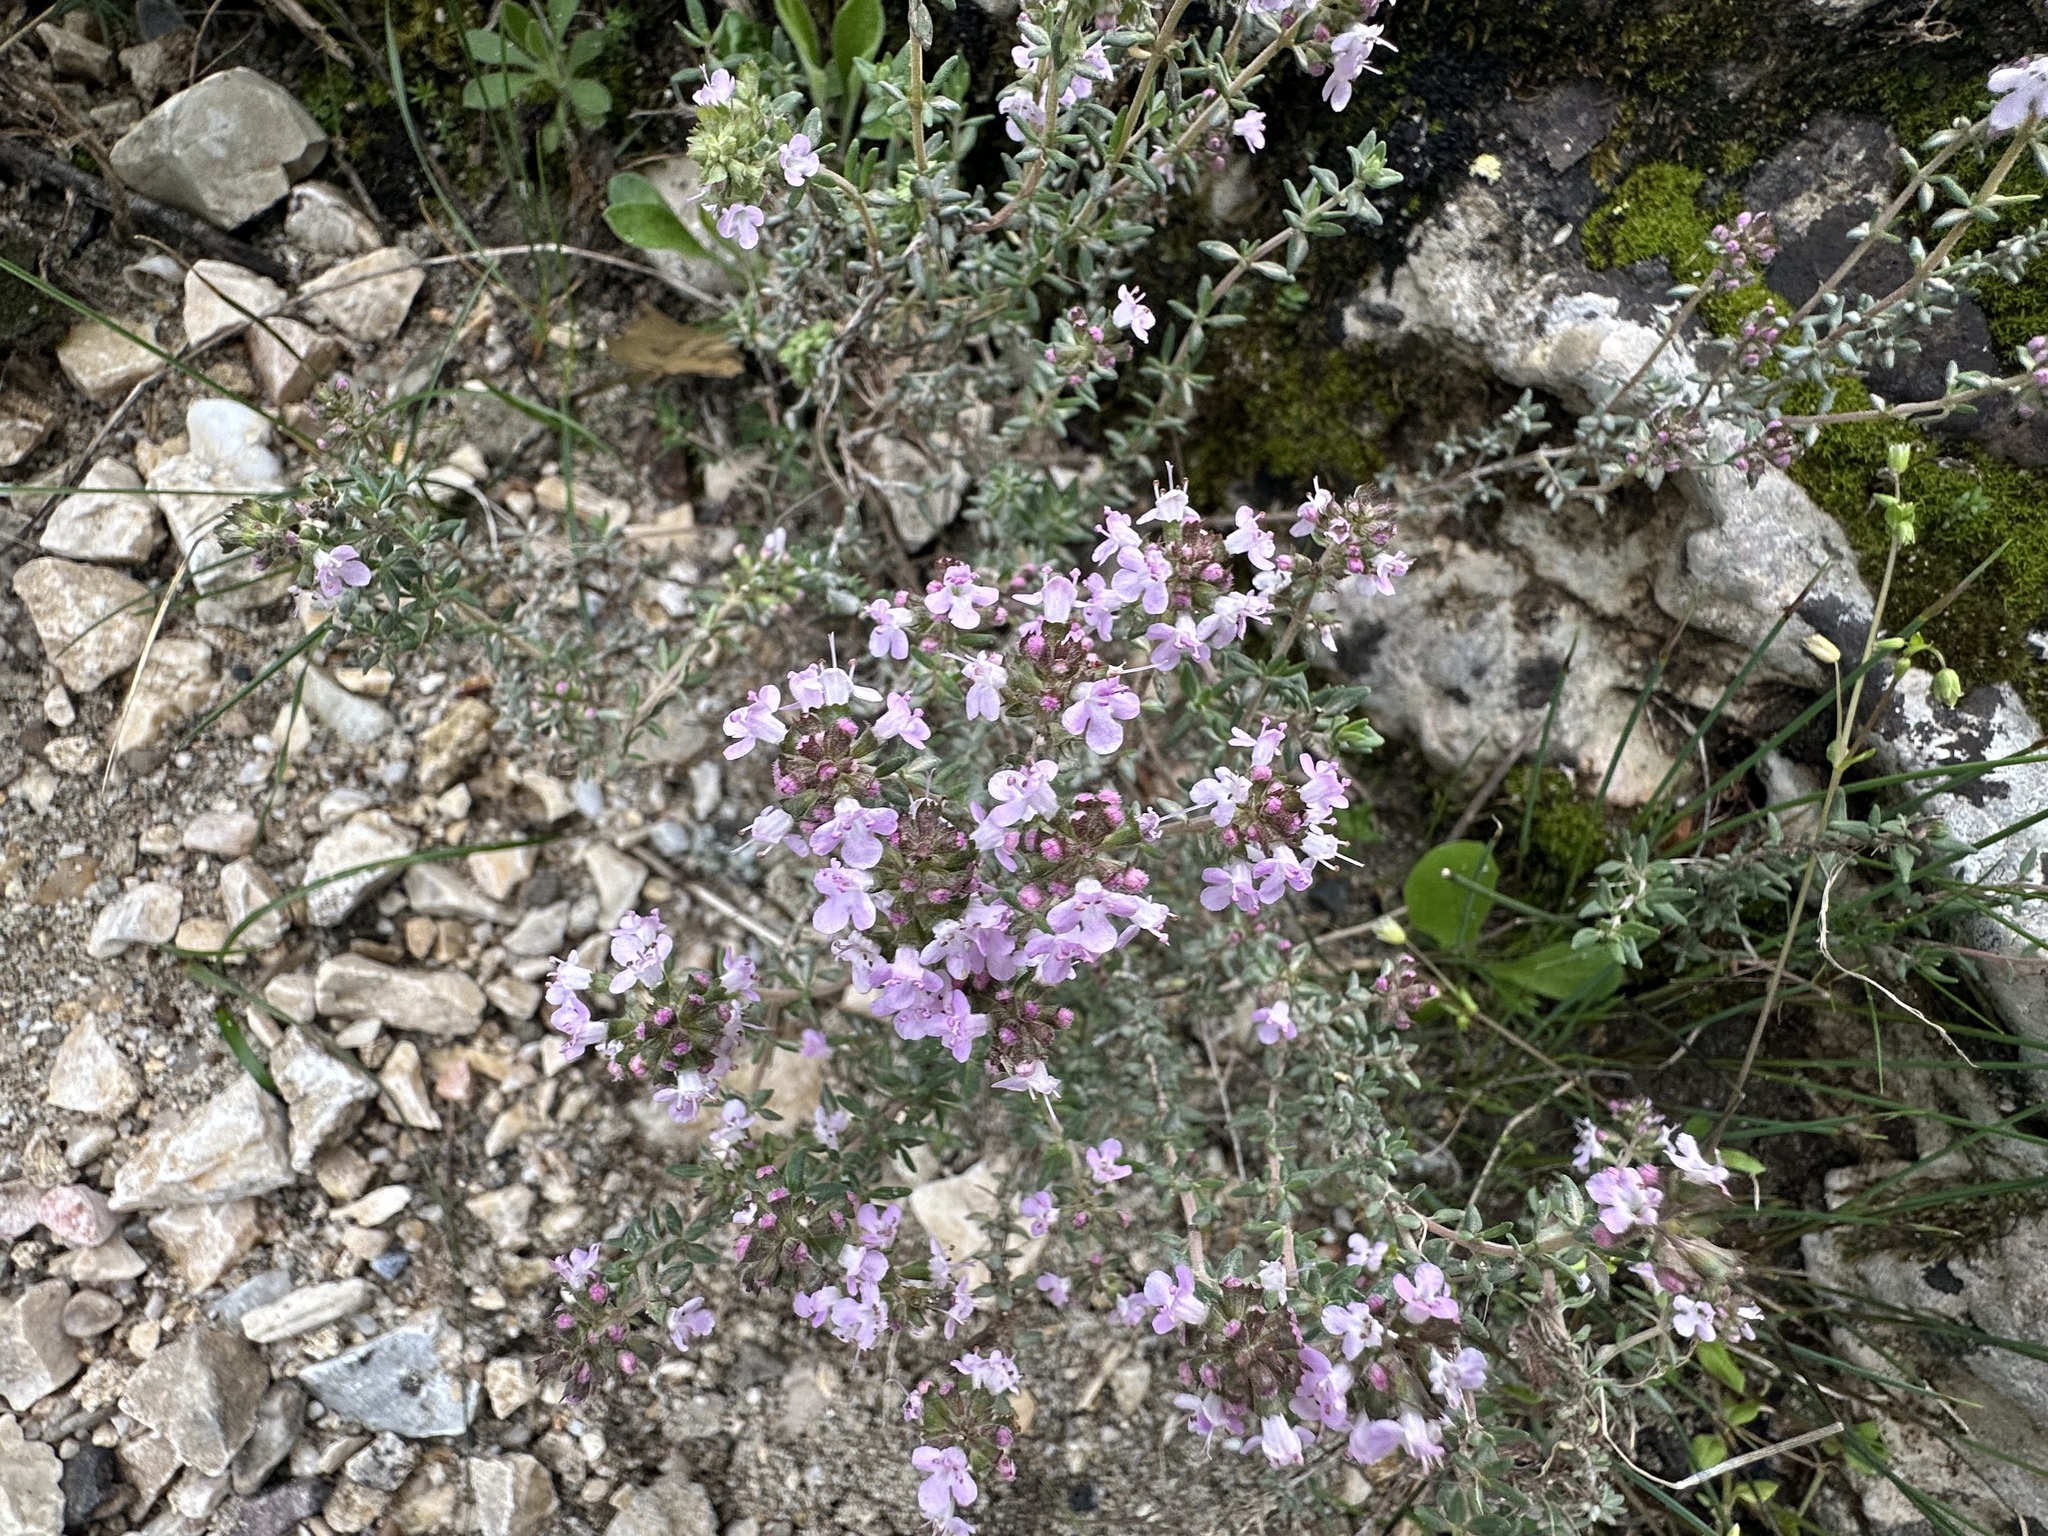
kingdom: Plantae
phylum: Tracheophyta
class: Magnoliopsida
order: Lamiales
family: Lamiaceae
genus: Thymus
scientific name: Thymus vulgaris
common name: Garden thyme
